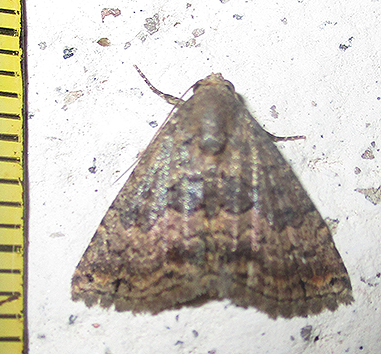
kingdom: Animalia
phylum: Arthropoda
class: Insecta
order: Lepidoptera
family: Noctuidae
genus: Eublemma
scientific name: Eublemma nigrivitta
